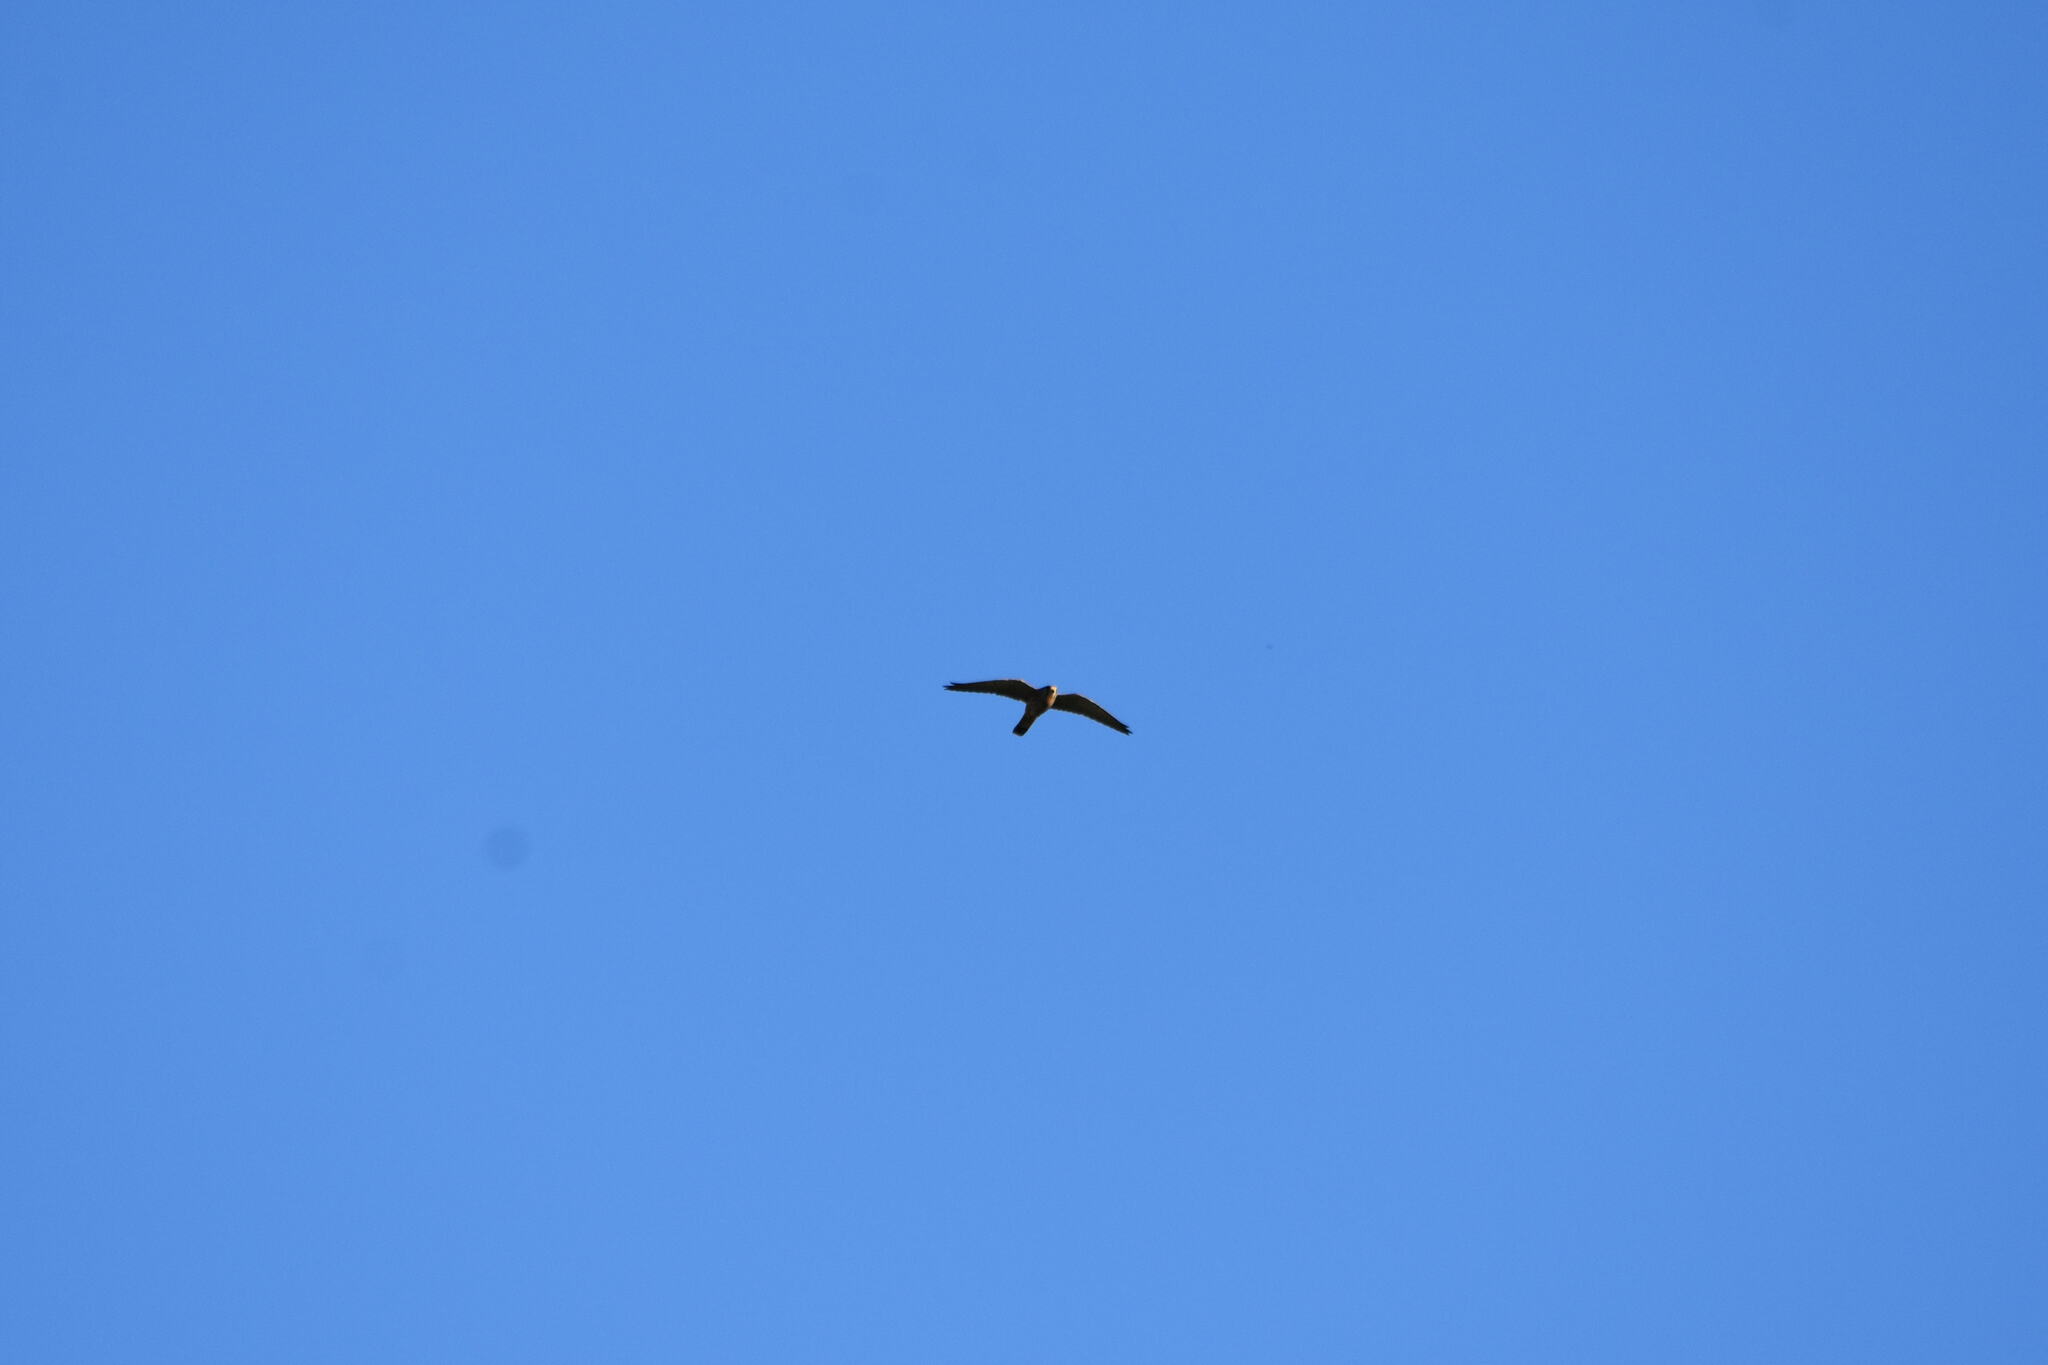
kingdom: Animalia
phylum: Chordata
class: Aves
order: Falconiformes
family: Falconidae
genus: Falco
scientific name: Falco tinnunculus
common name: Common kestrel
